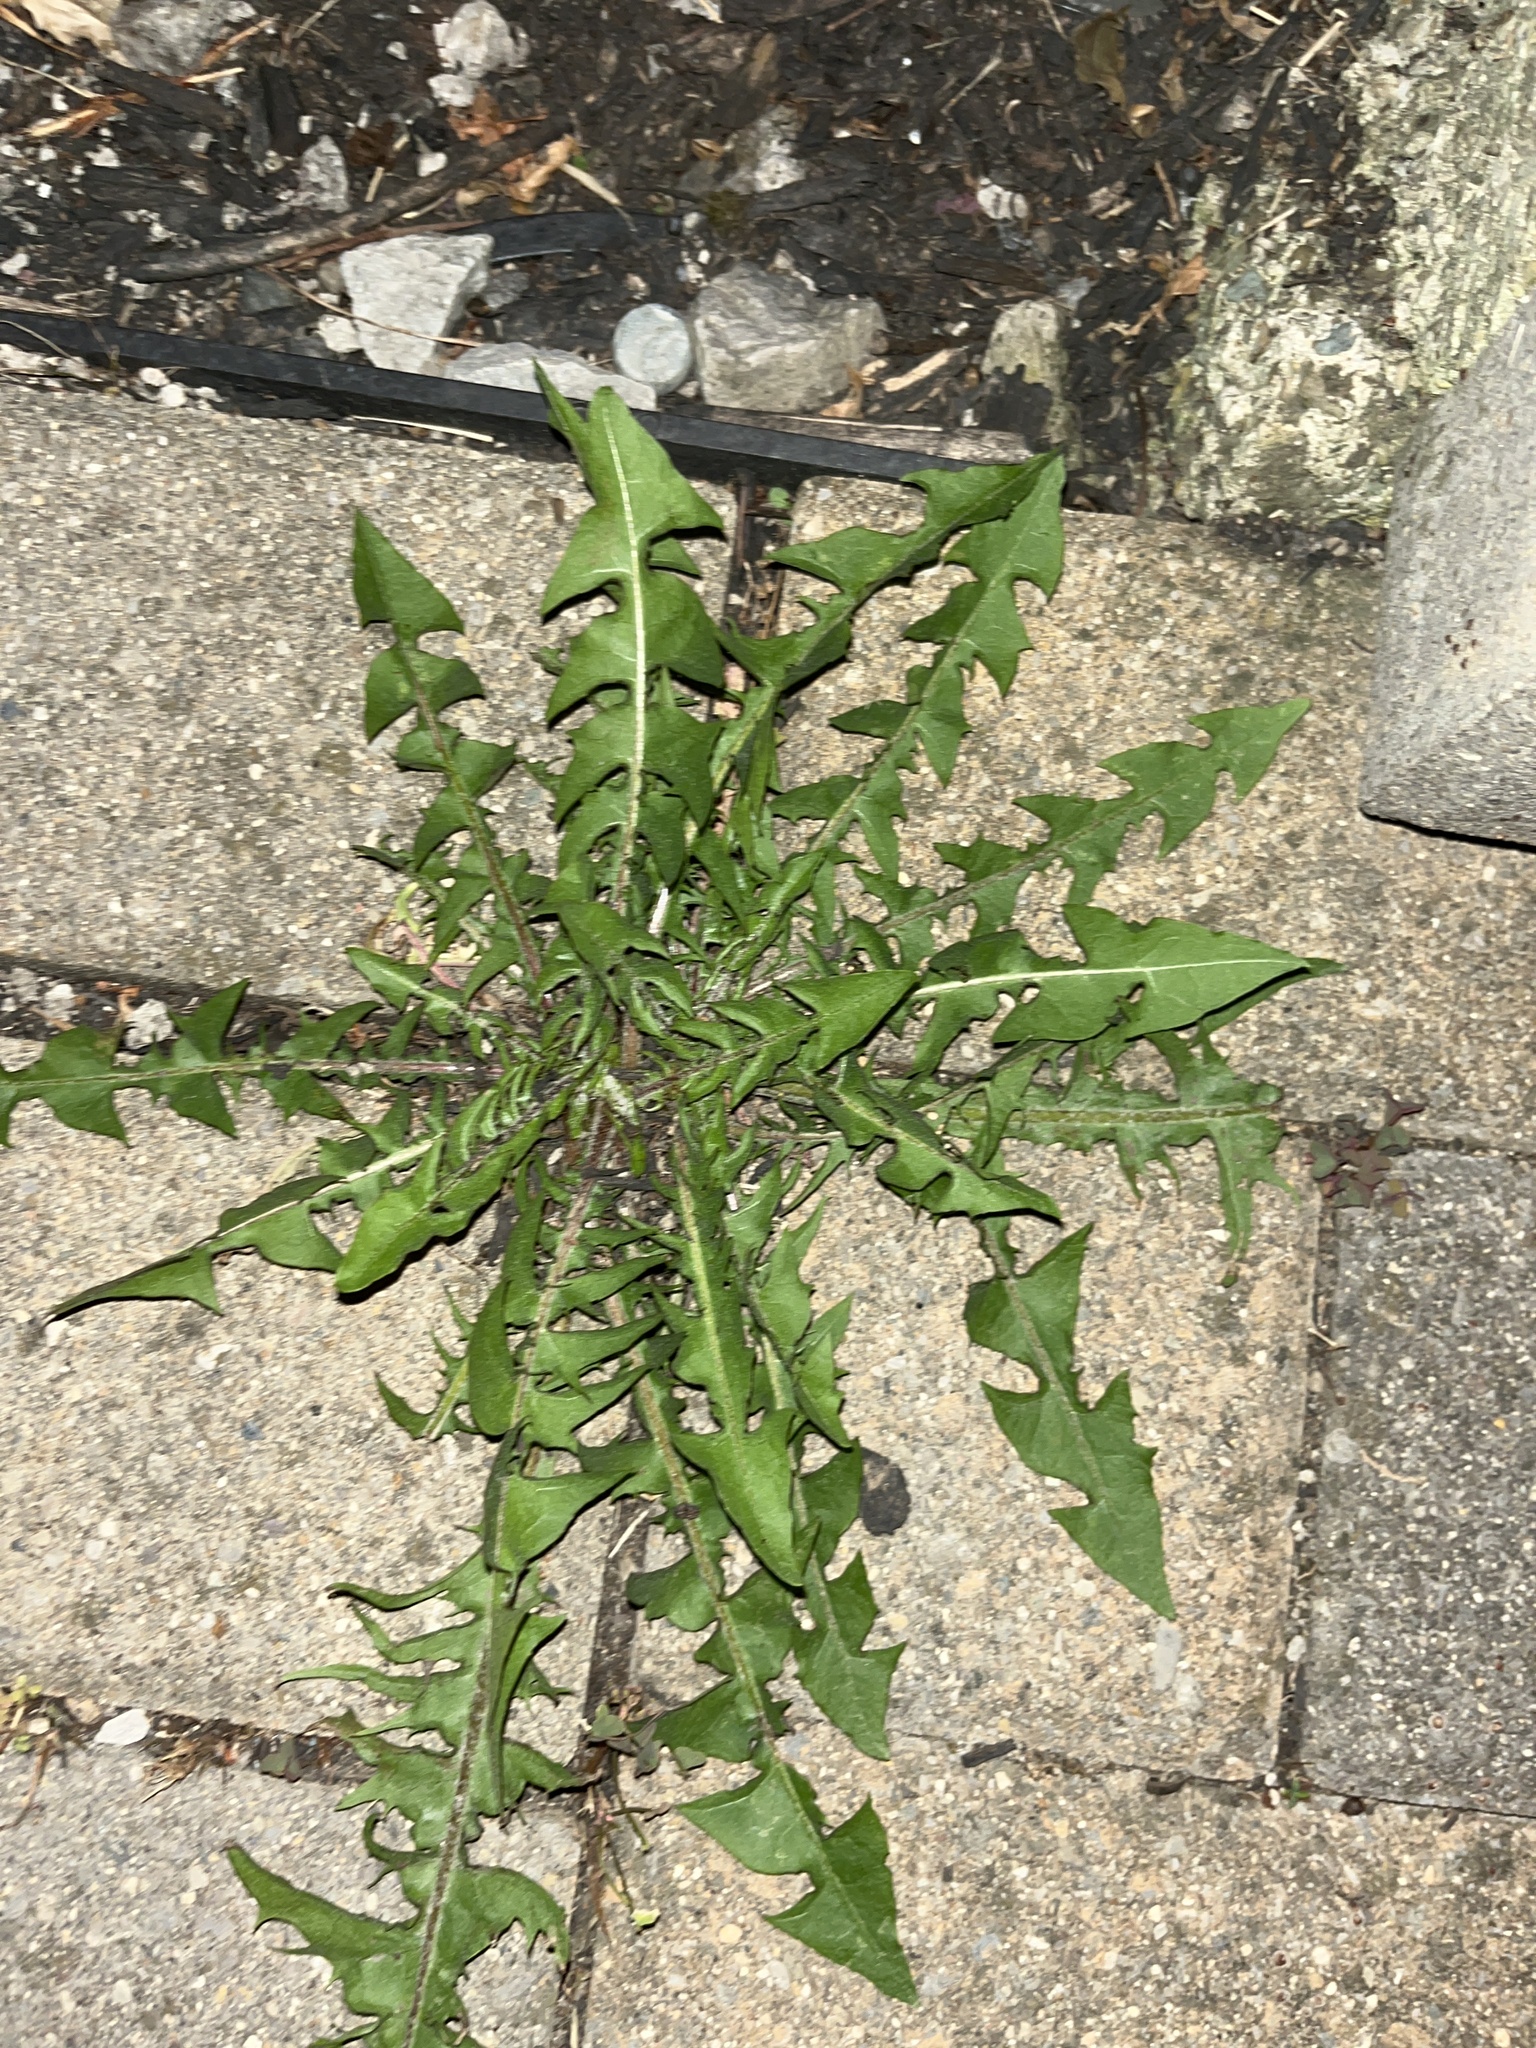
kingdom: Plantae
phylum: Tracheophyta
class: Magnoliopsida
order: Asterales
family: Asteraceae
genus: Taraxacum
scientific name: Taraxacum officinale
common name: Common dandelion
